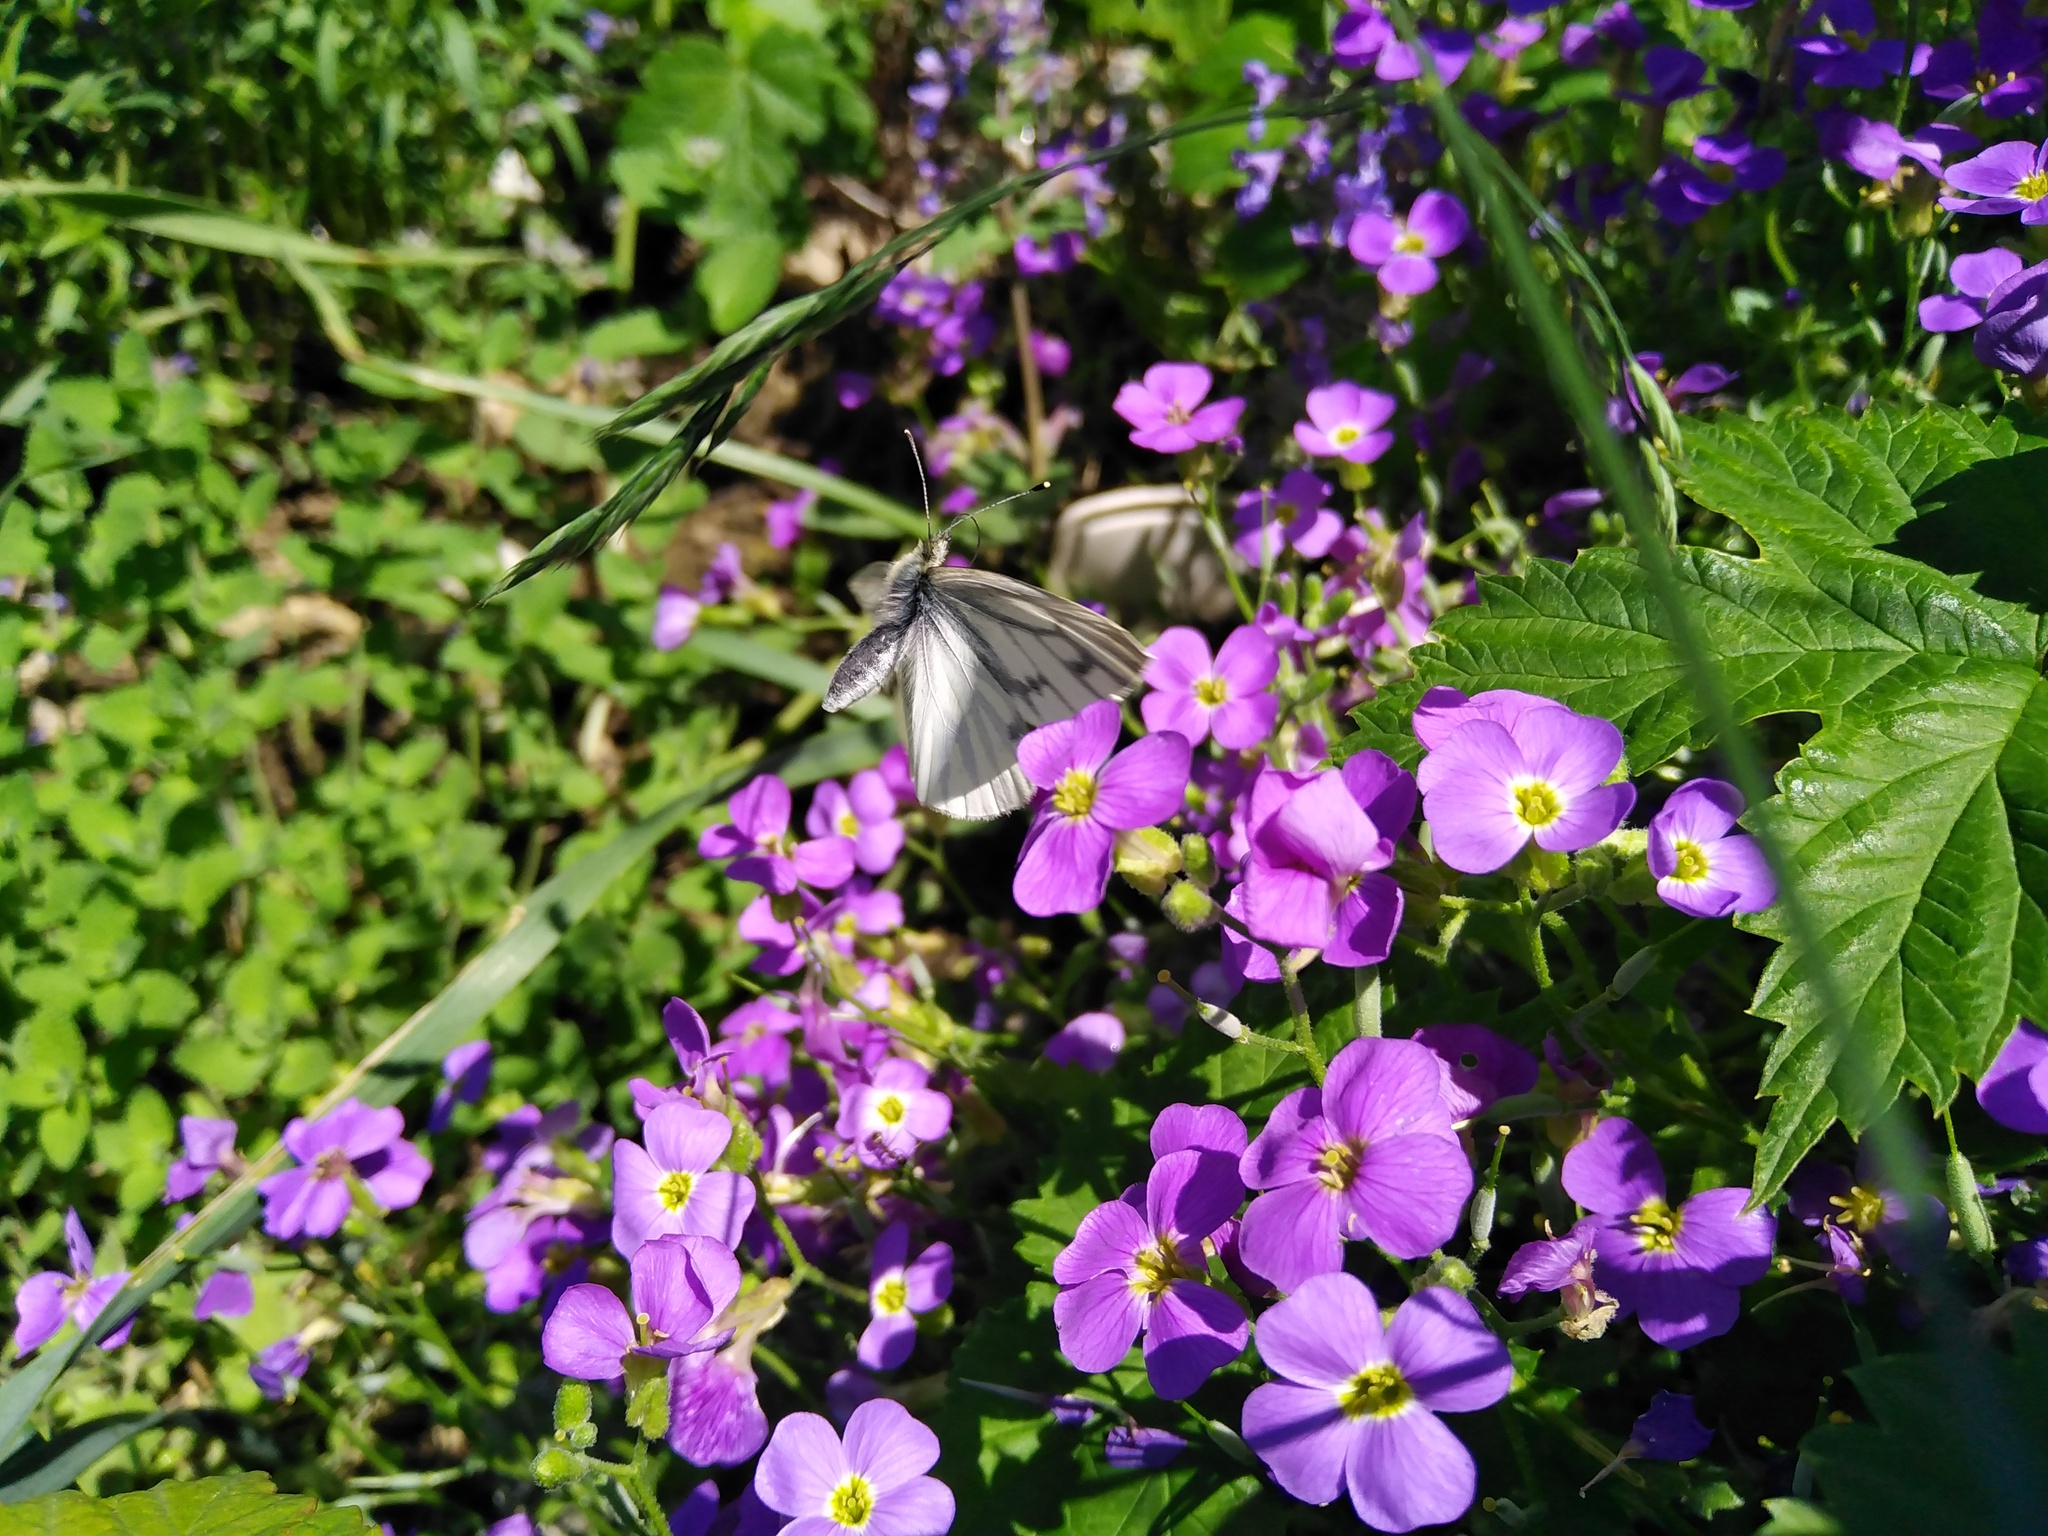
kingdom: Animalia
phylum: Arthropoda
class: Insecta
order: Lepidoptera
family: Pieridae
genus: Pieris
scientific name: Pieris napi
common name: Green-veined white
